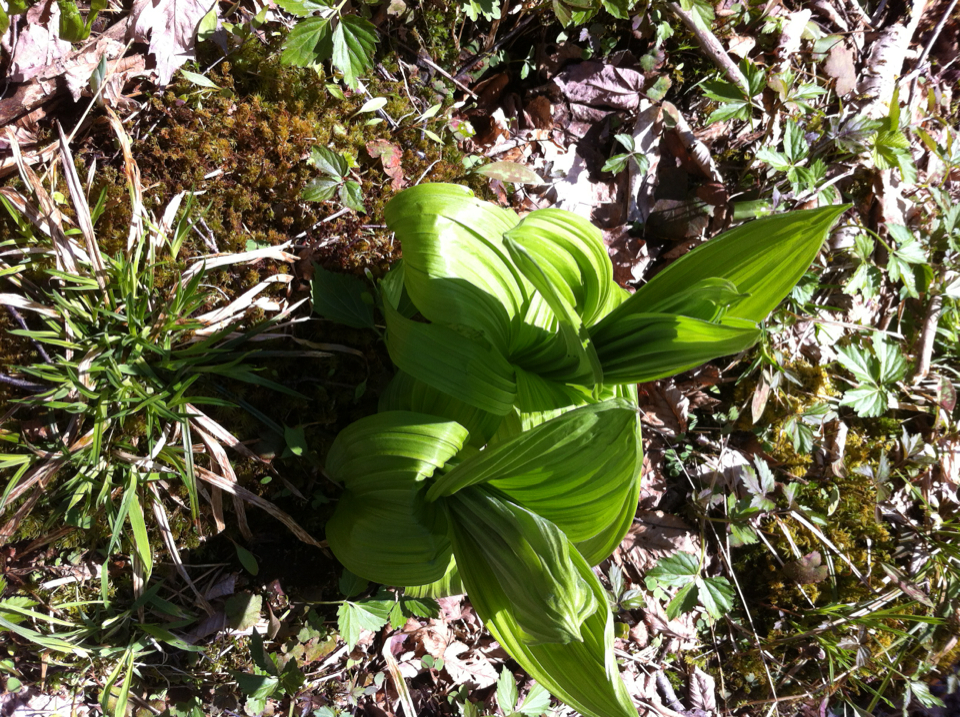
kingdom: Plantae
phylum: Tracheophyta
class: Liliopsida
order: Liliales
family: Melanthiaceae
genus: Veratrum
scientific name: Veratrum viride
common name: American false hellebore
